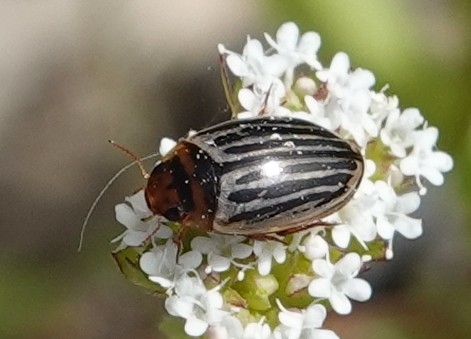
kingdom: Animalia
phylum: Arthropoda
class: Insecta
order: Coleoptera
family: Dytiscidae
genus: Agabus
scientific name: Agabus disintegratus
